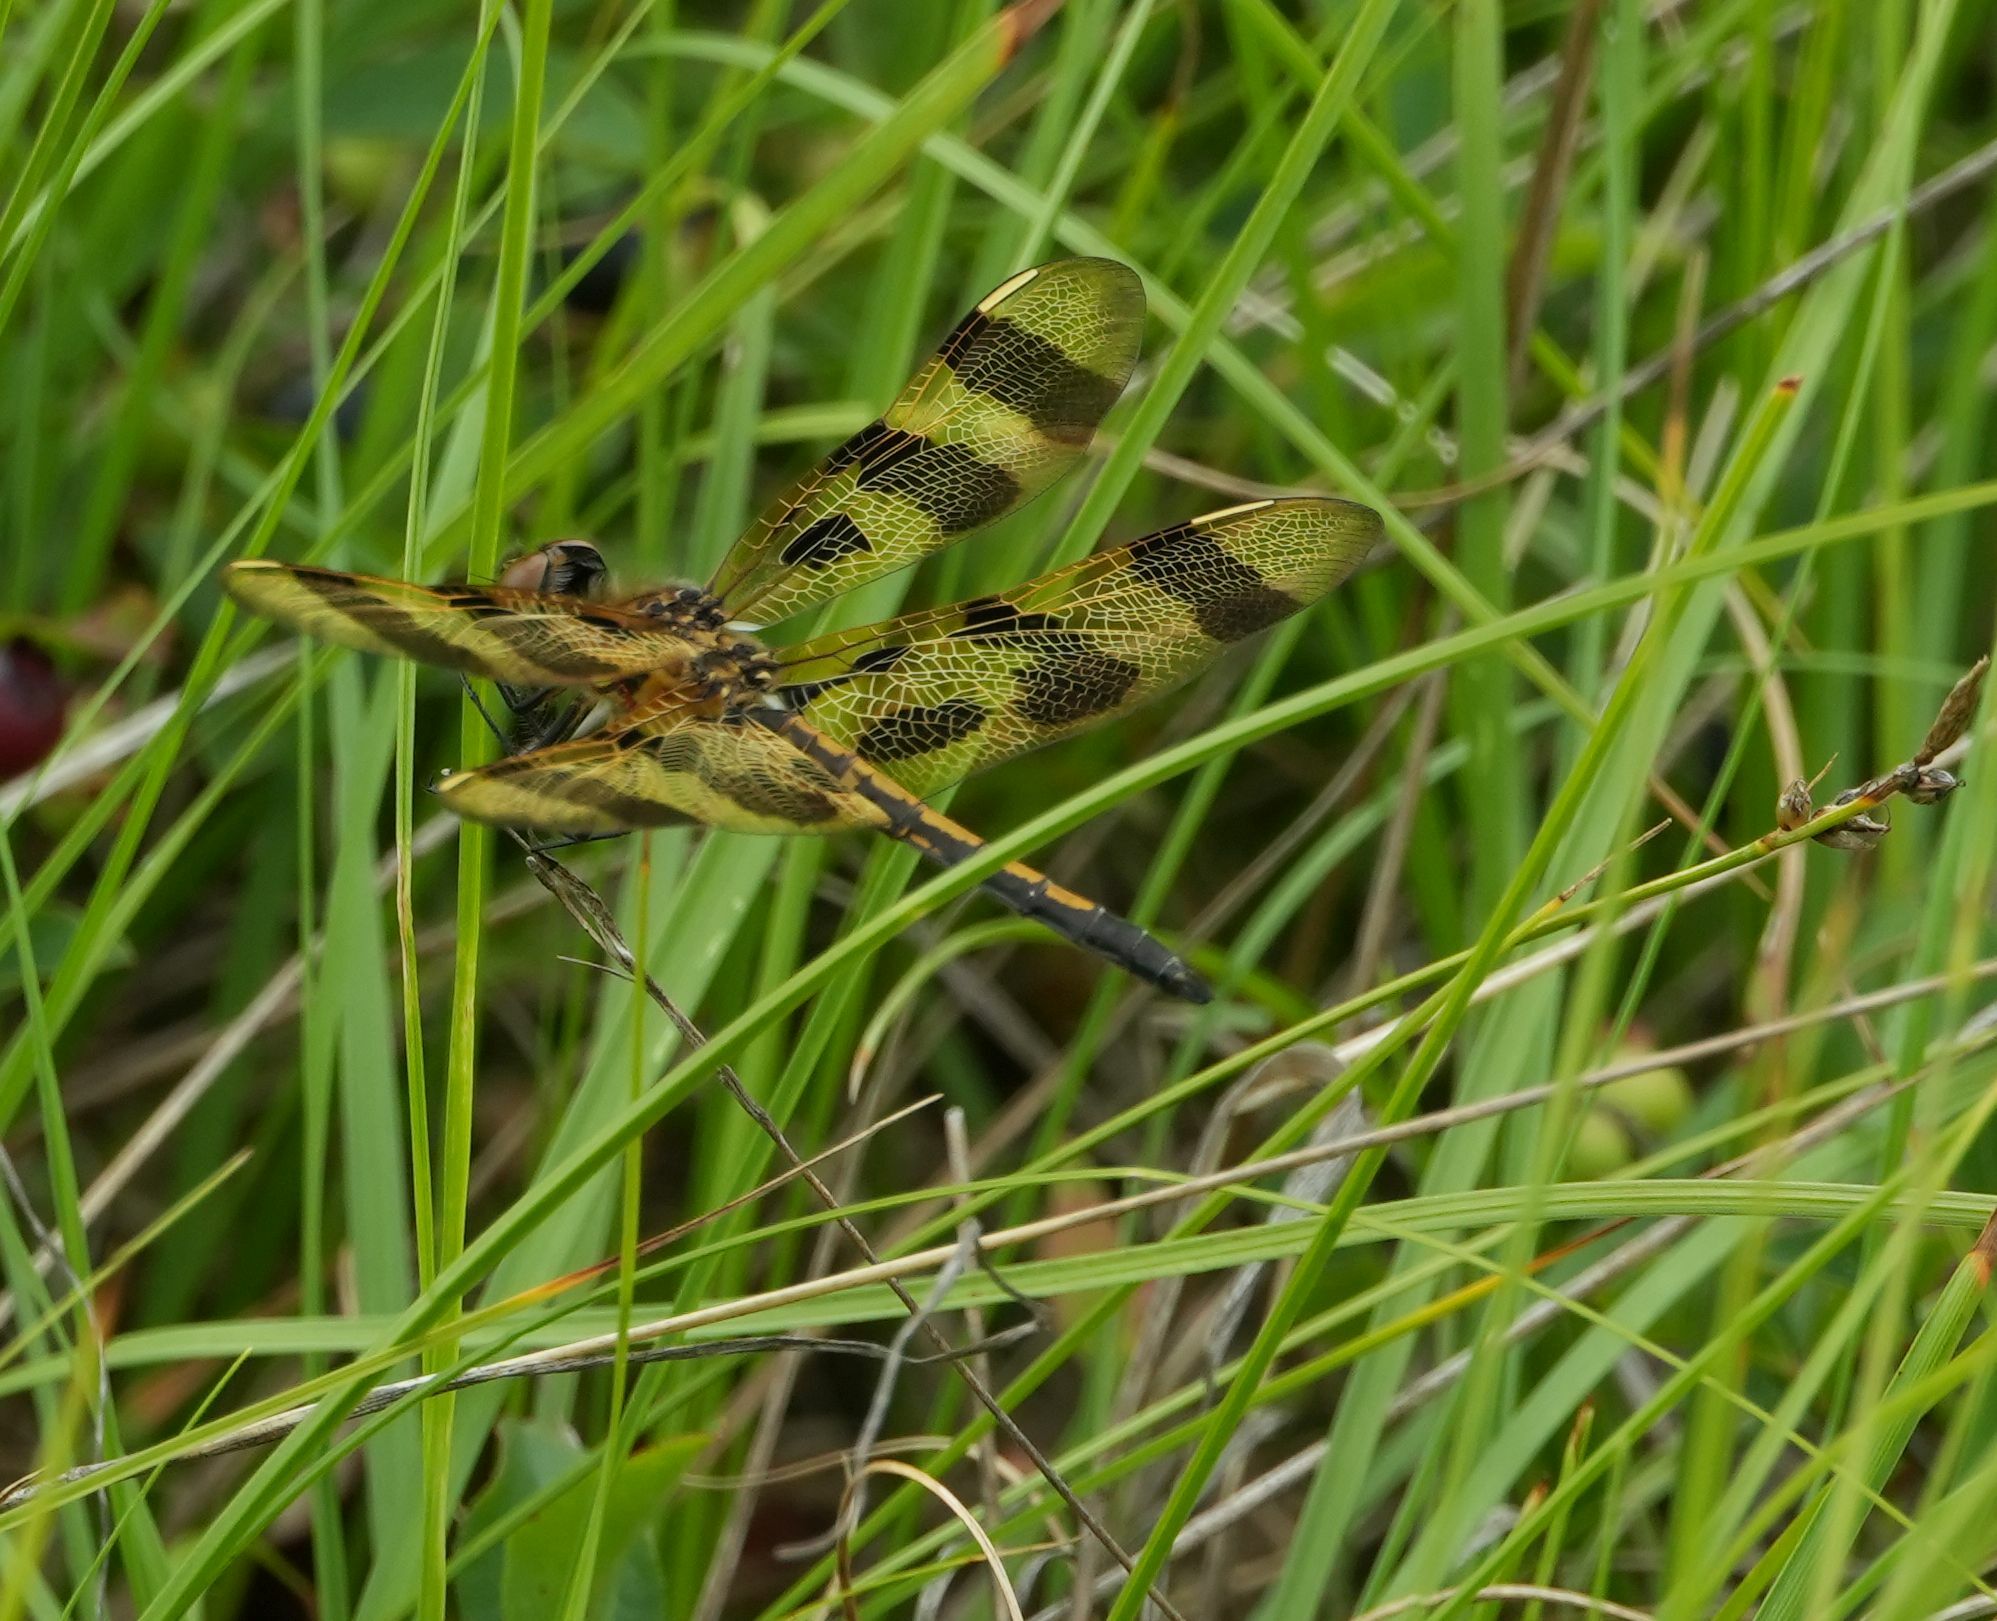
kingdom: Animalia
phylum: Arthropoda
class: Insecta
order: Odonata
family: Libellulidae
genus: Celithemis
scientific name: Celithemis eponina
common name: Halloween pennant
